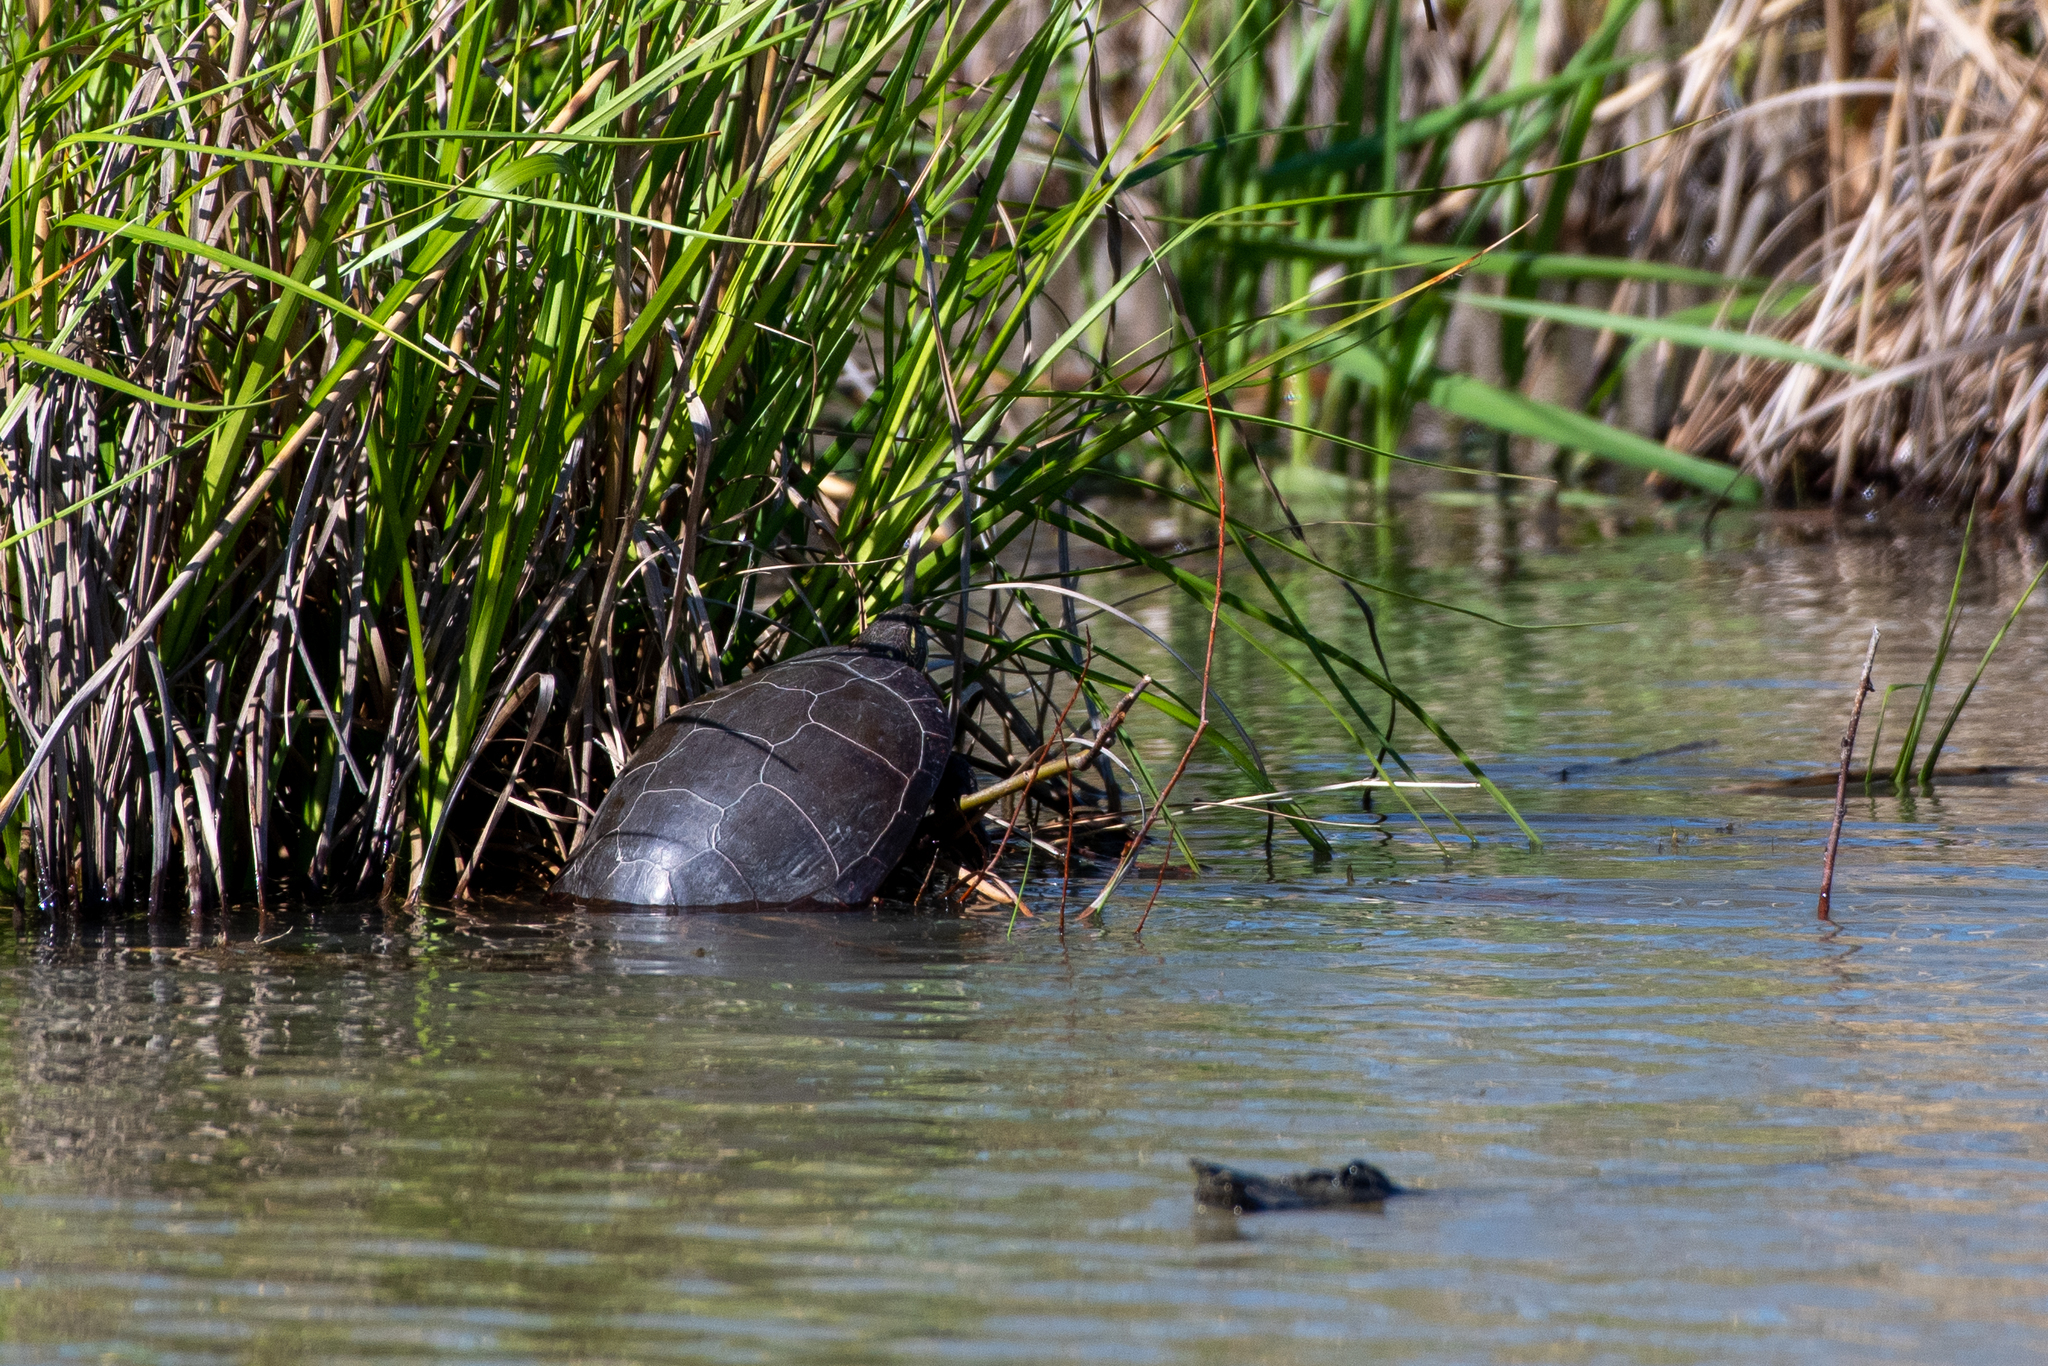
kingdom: Animalia
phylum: Chordata
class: Testudines
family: Emydidae
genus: Chrysemys
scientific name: Chrysemys picta
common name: Painted turtle
